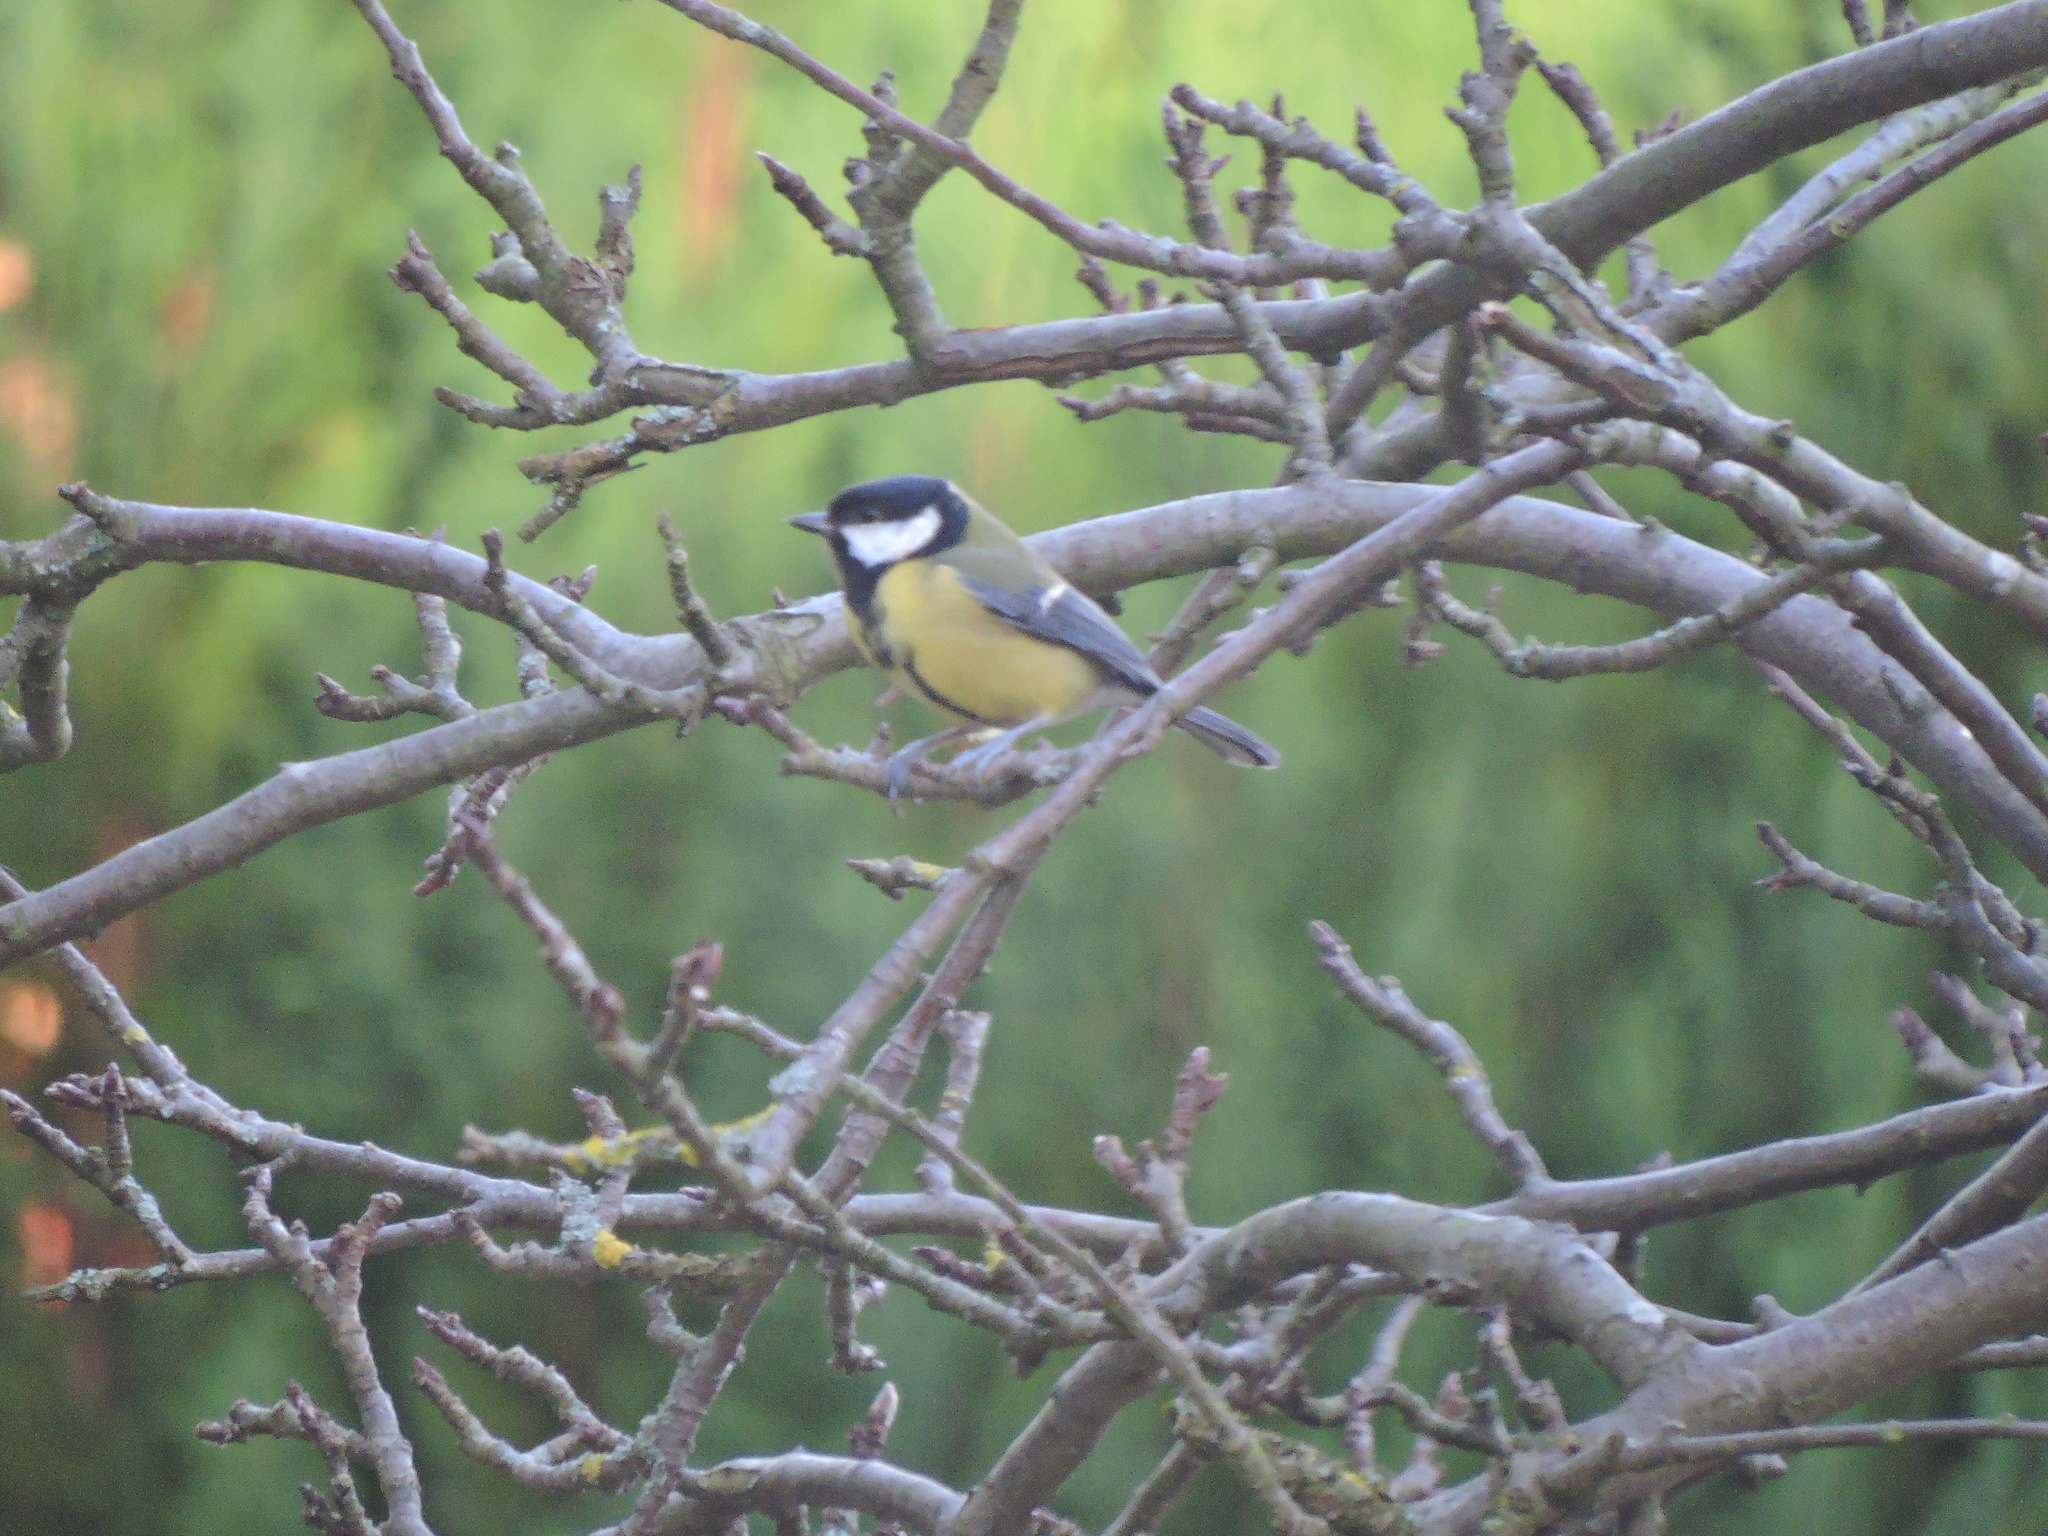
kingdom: Animalia
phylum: Chordata
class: Aves
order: Passeriformes
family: Paridae
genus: Parus
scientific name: Parus major
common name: Great tit
